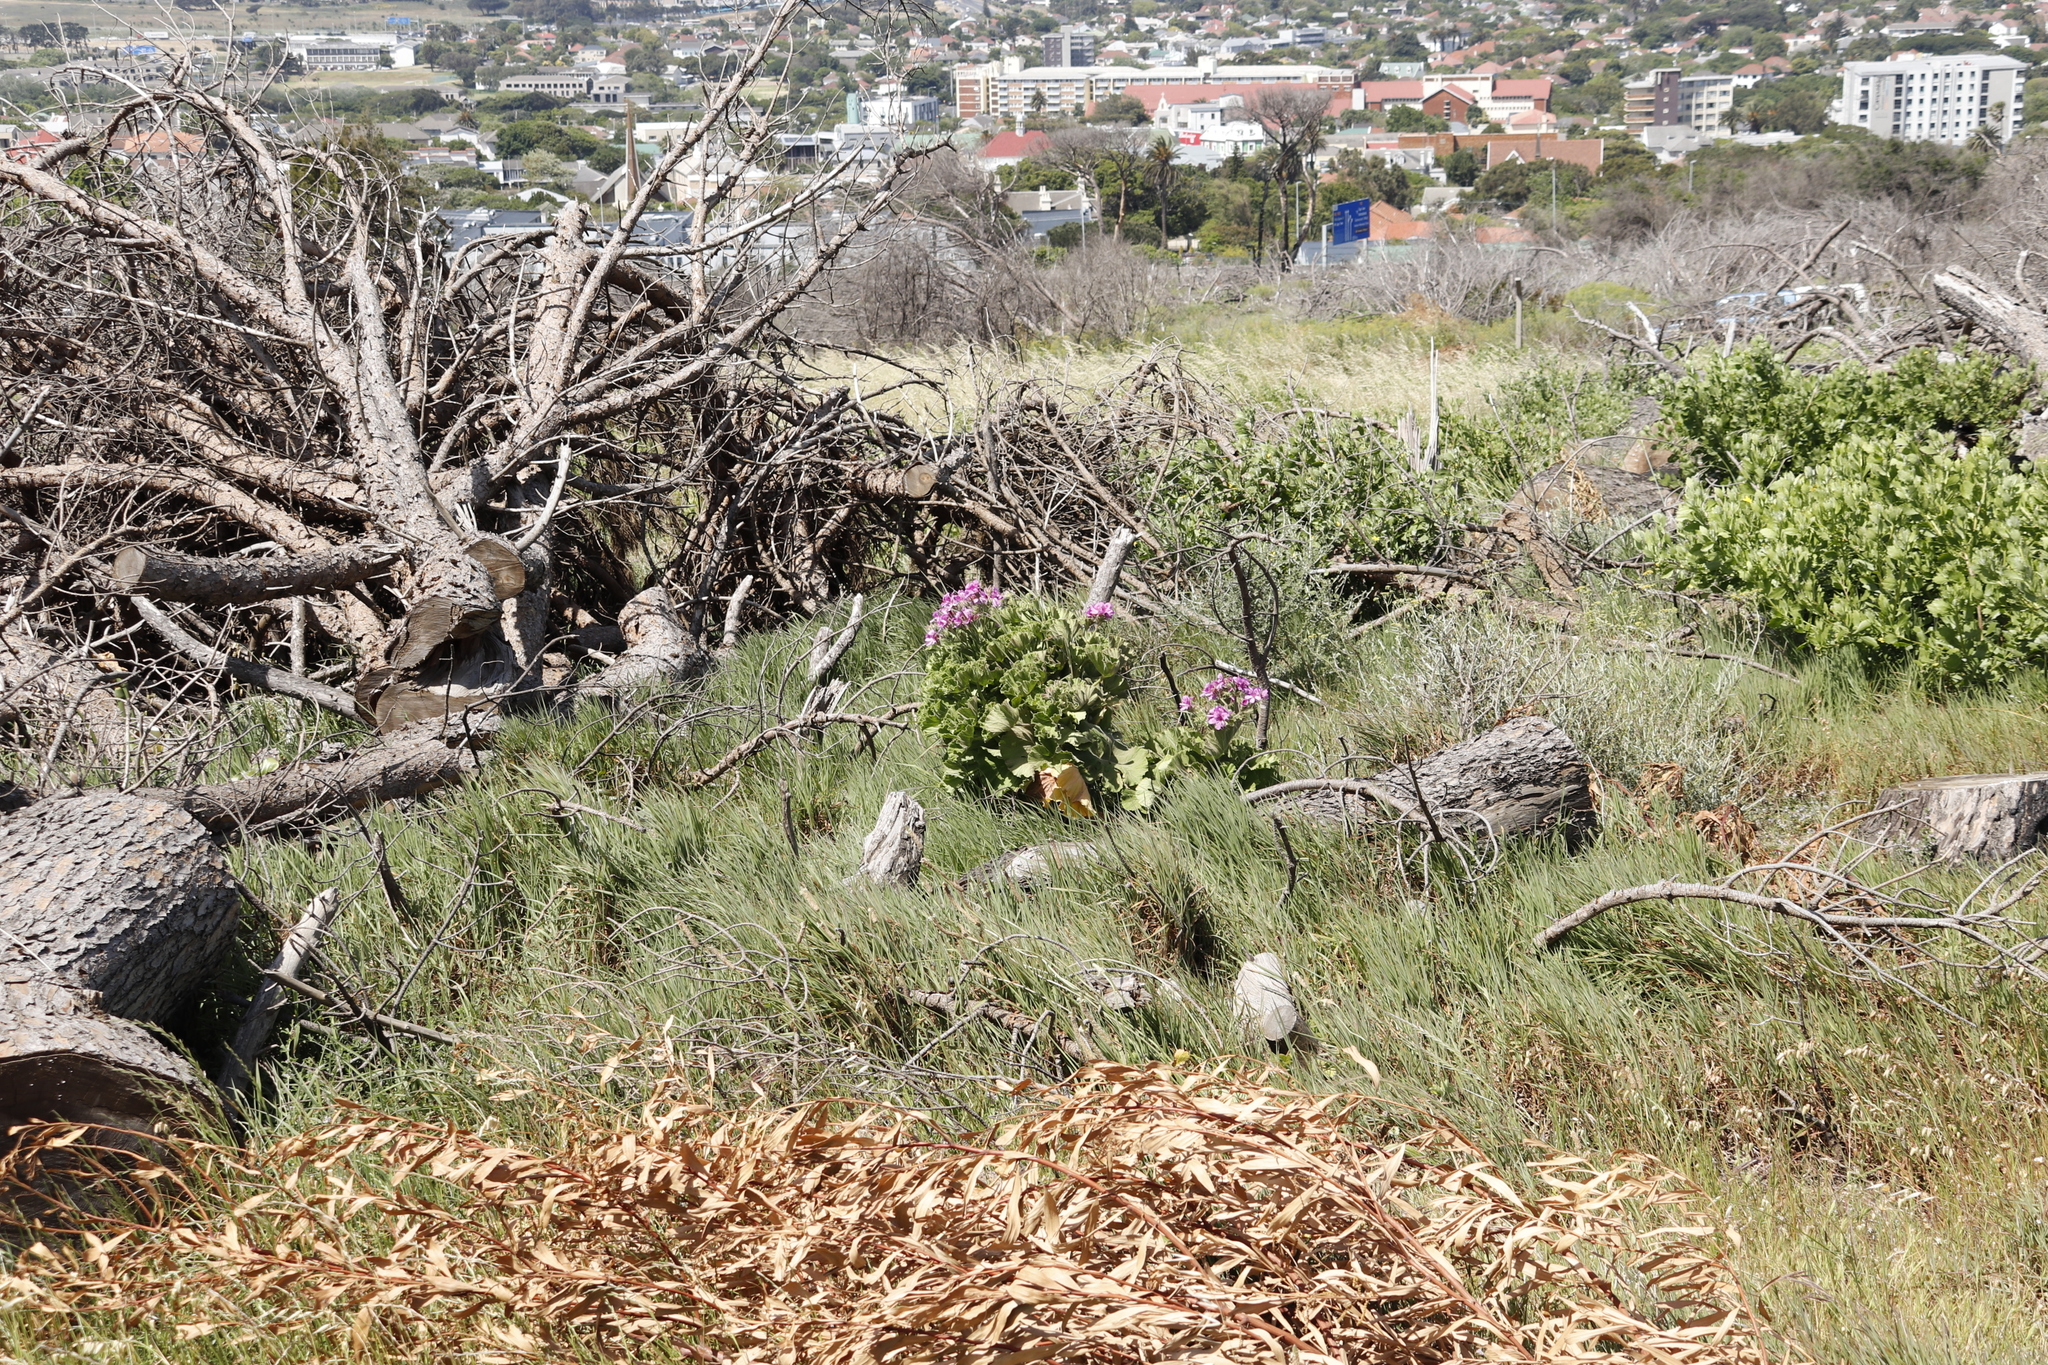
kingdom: Plantae
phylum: Tracheophyta
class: Magnoliopsida
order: Geraniales
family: Geraniaceae
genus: Pelargonium
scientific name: Pelargonium cucullatum
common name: Tree pelargonium
